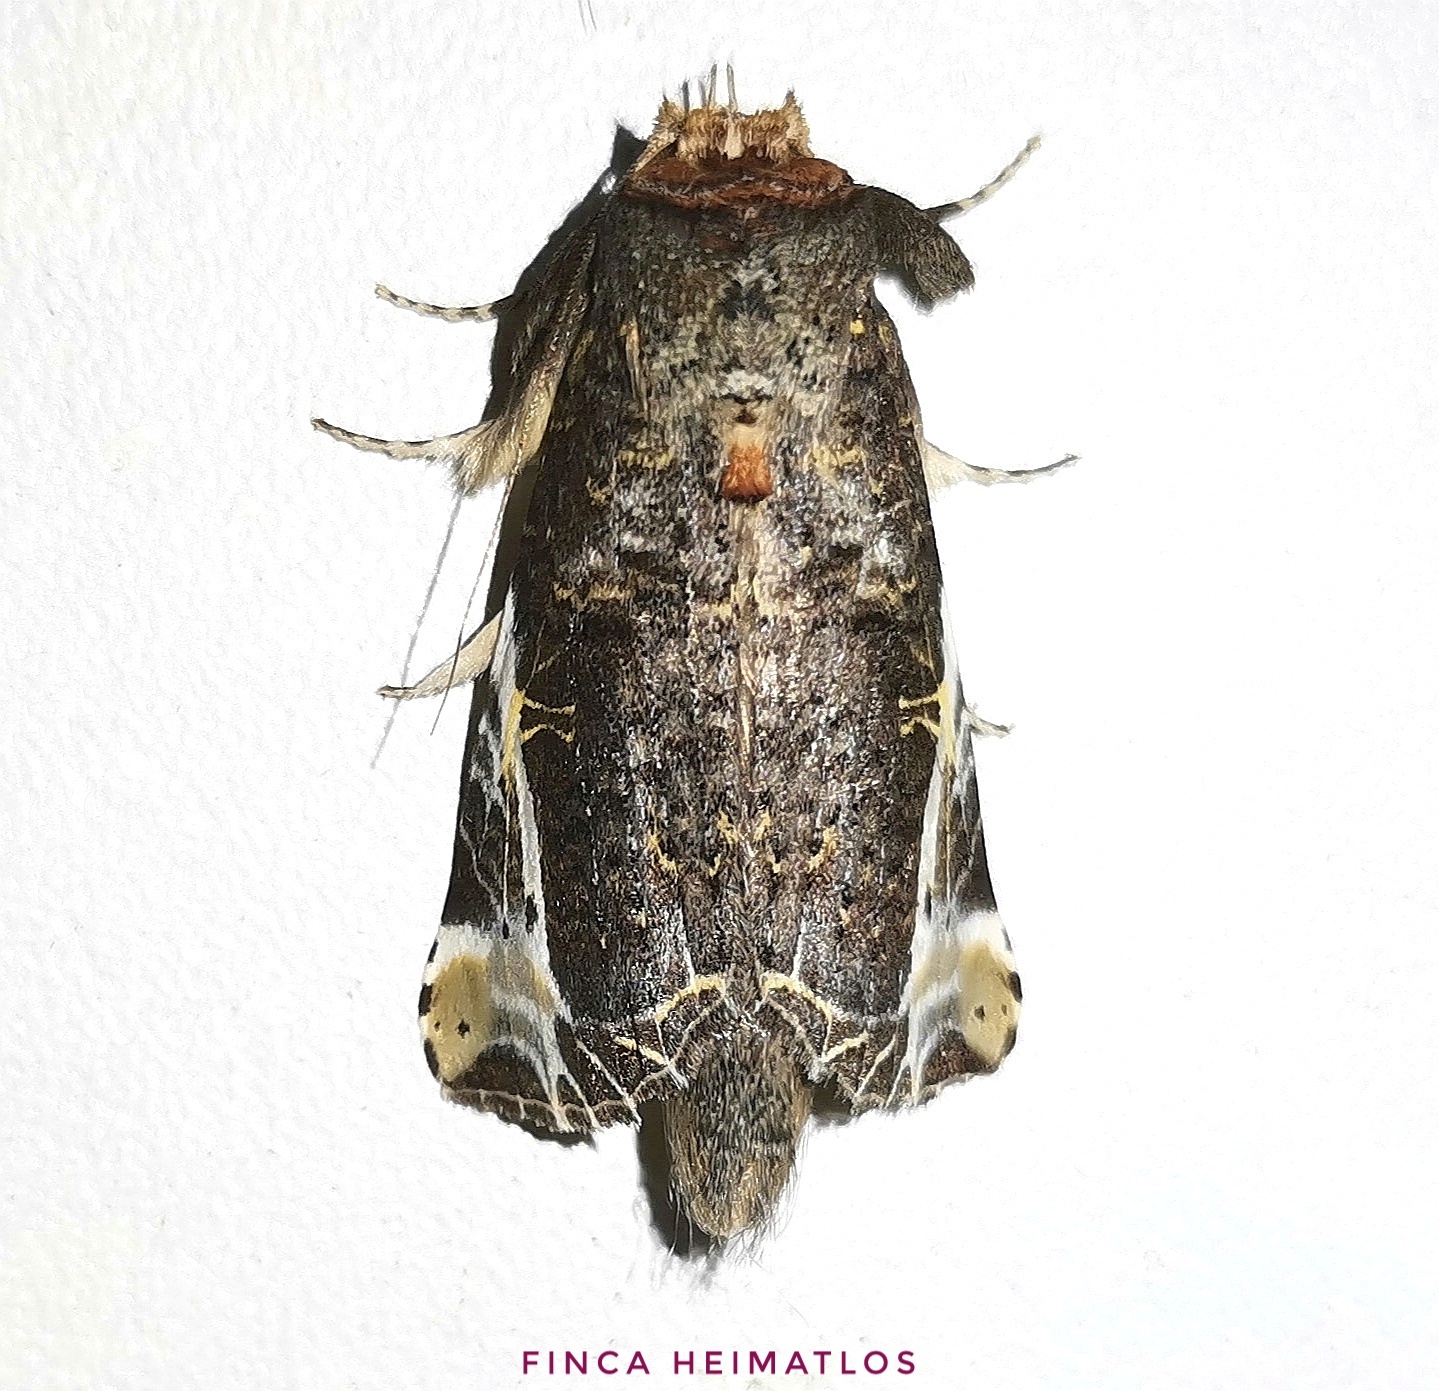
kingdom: Animalia
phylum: Arthropoda
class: Insecta
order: Lepidoptera
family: Notodontidae
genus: Calledema
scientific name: Calledema marmorea
